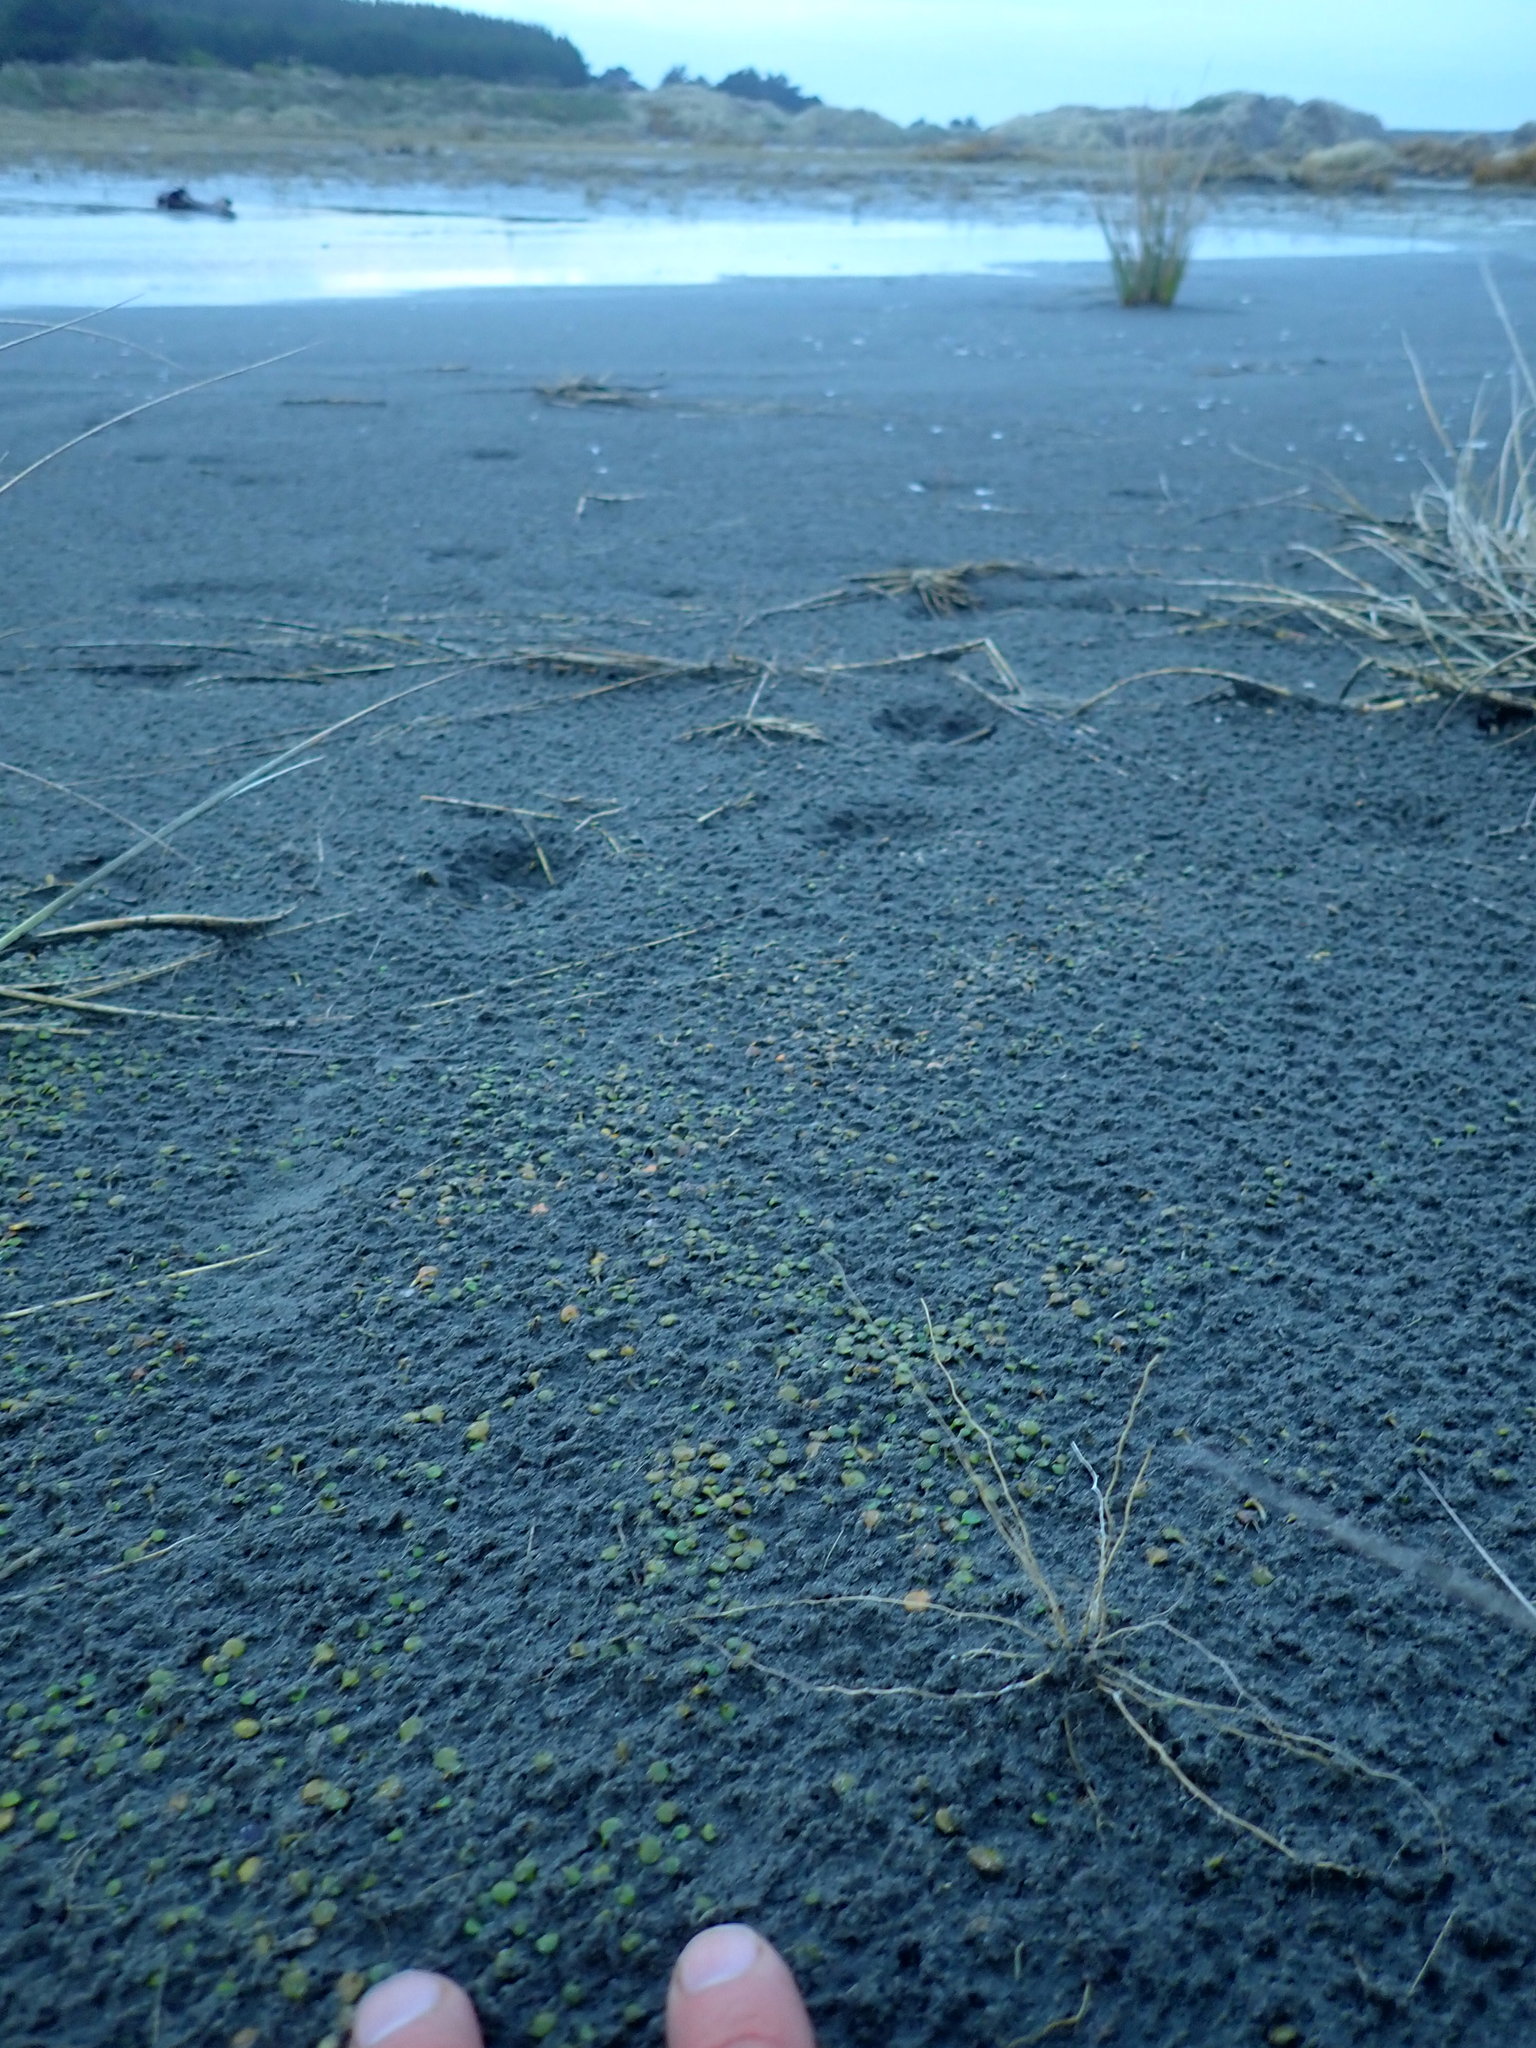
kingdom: Plantae
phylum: Tracheophyta
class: Magnoliopsida
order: Asterales
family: Goodeniaceae
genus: Goodenia
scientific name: Goodenia heenanii
